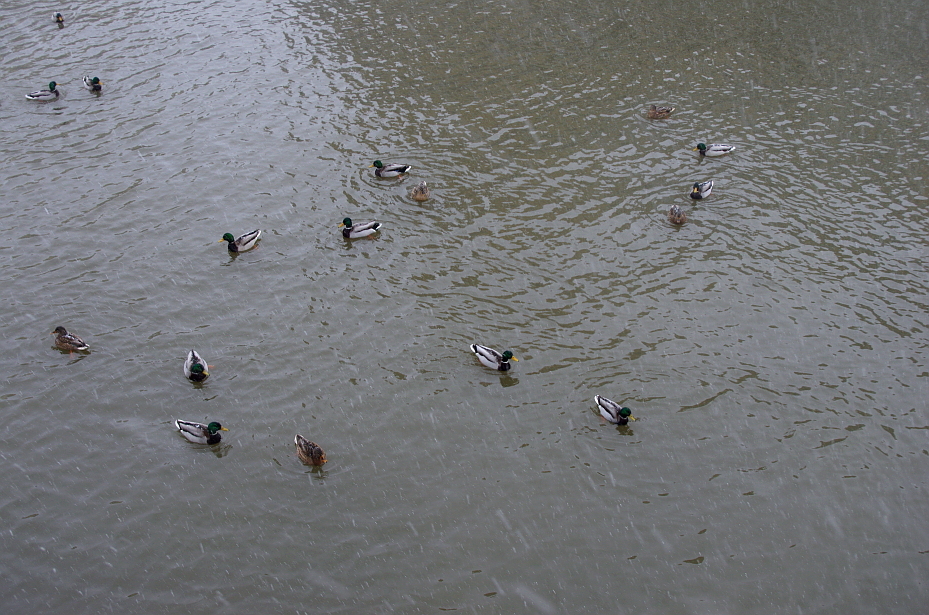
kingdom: Animalia
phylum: Chordata
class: Aves
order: Anseriformes
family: Anatidae
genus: Anas
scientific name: Anas platyrhynchos
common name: Mallard
